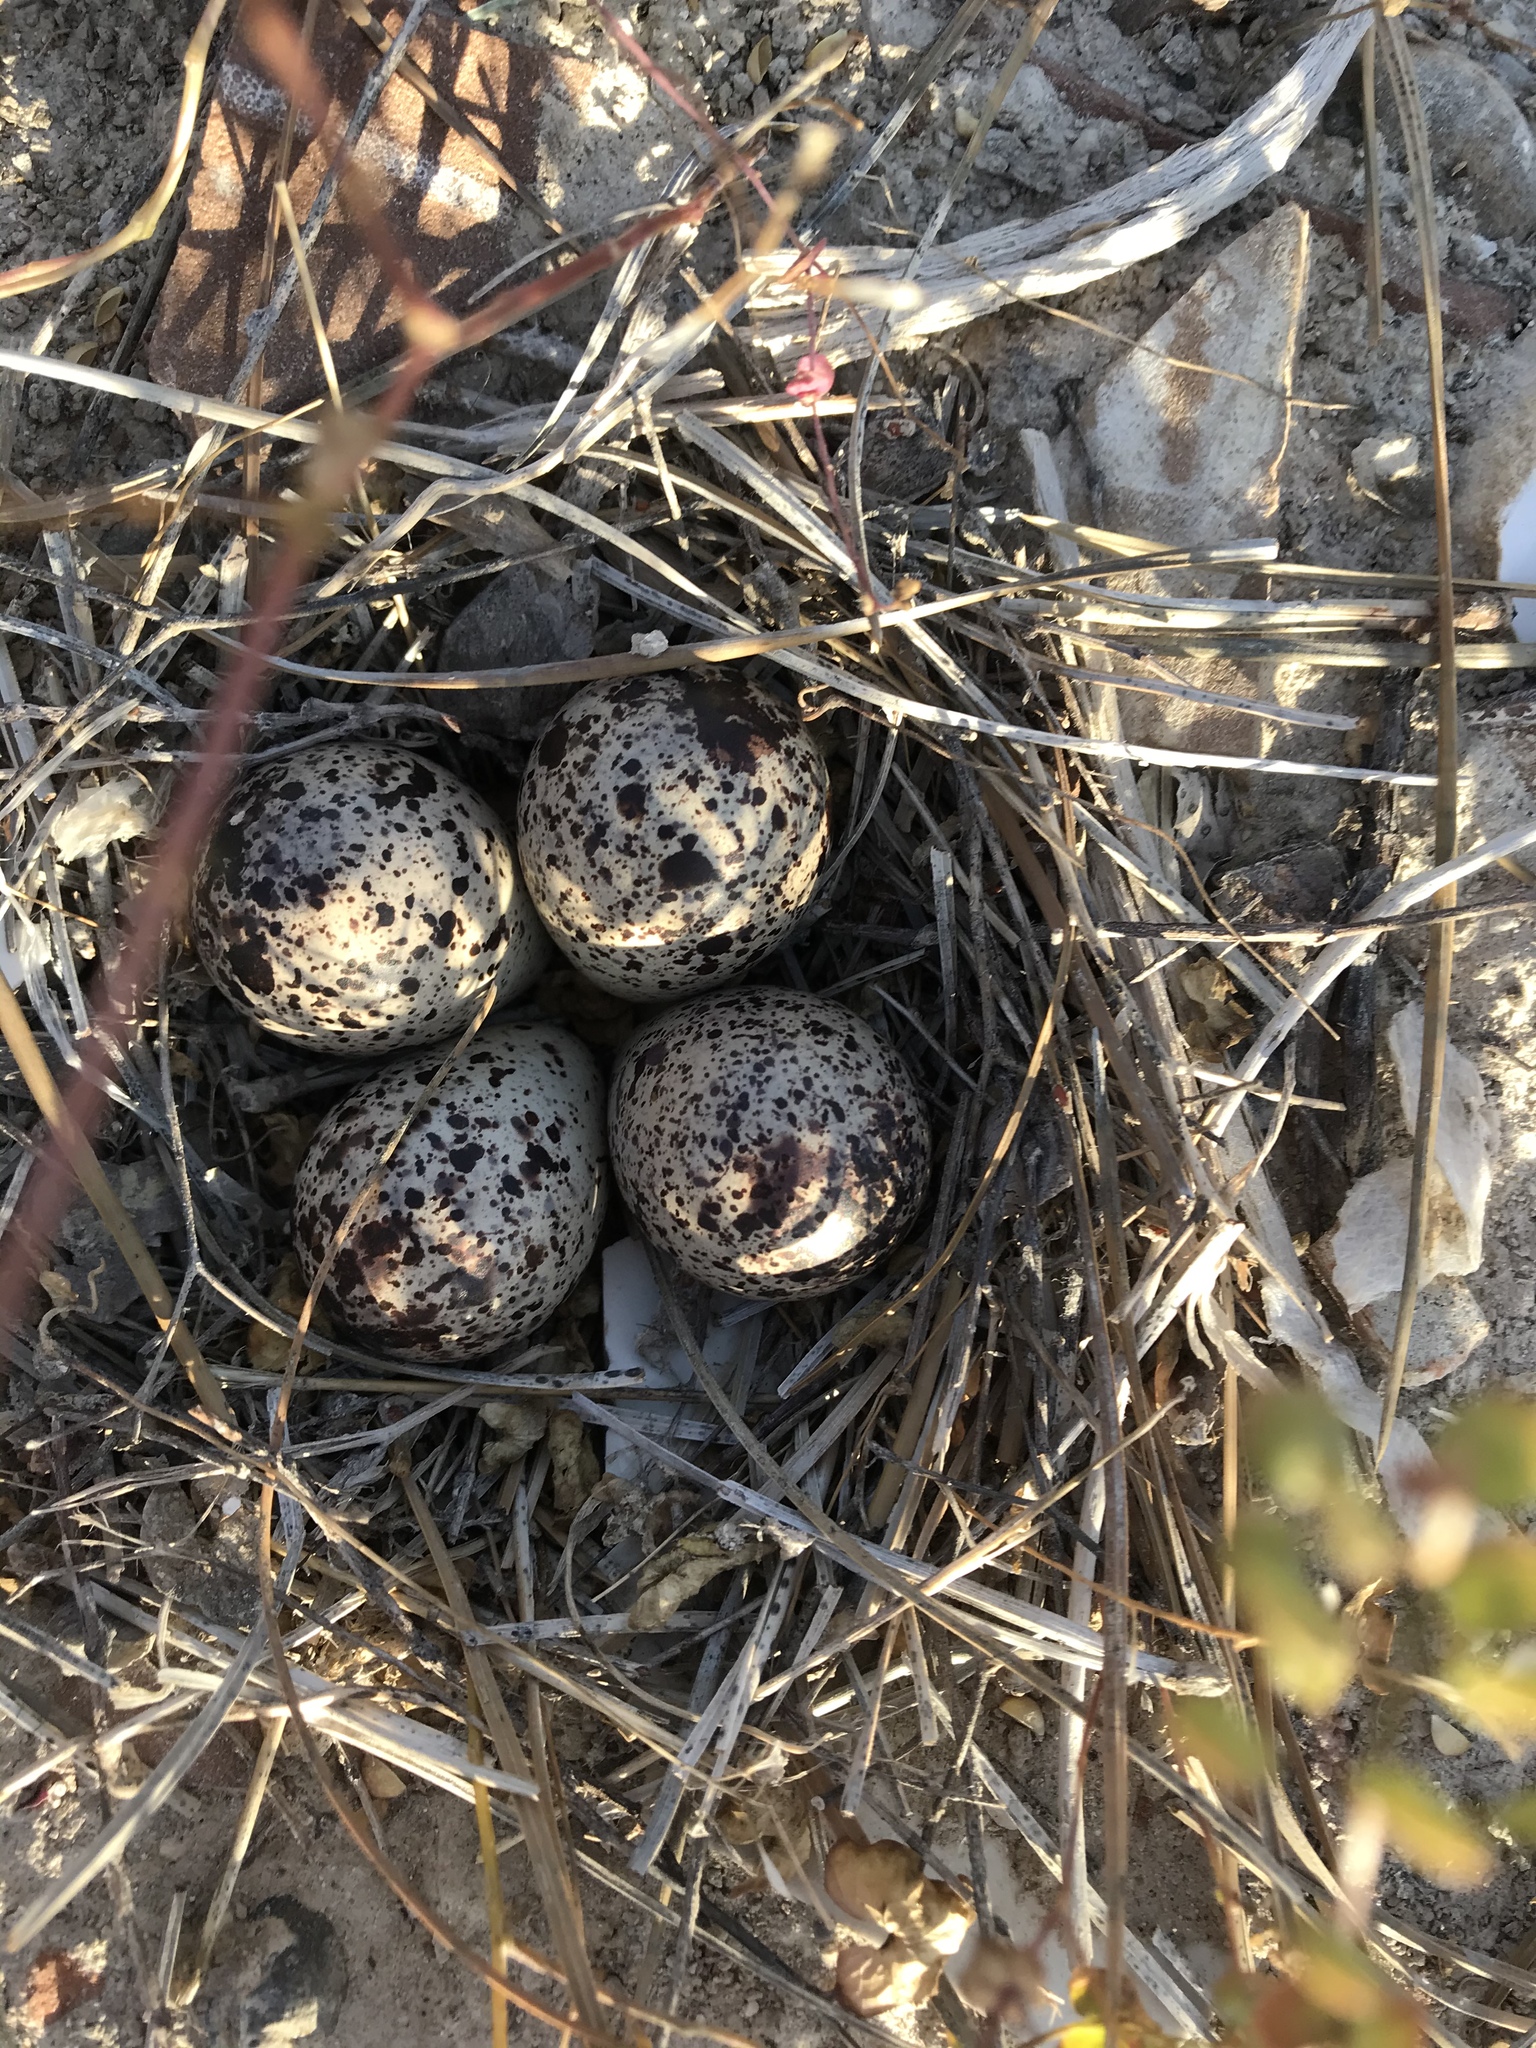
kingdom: Animalia
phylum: Chordata
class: Aves
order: Charadriiformes
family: Scolopacidae
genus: Actitis
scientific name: Actitis macularius
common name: Spotted sandpiper
